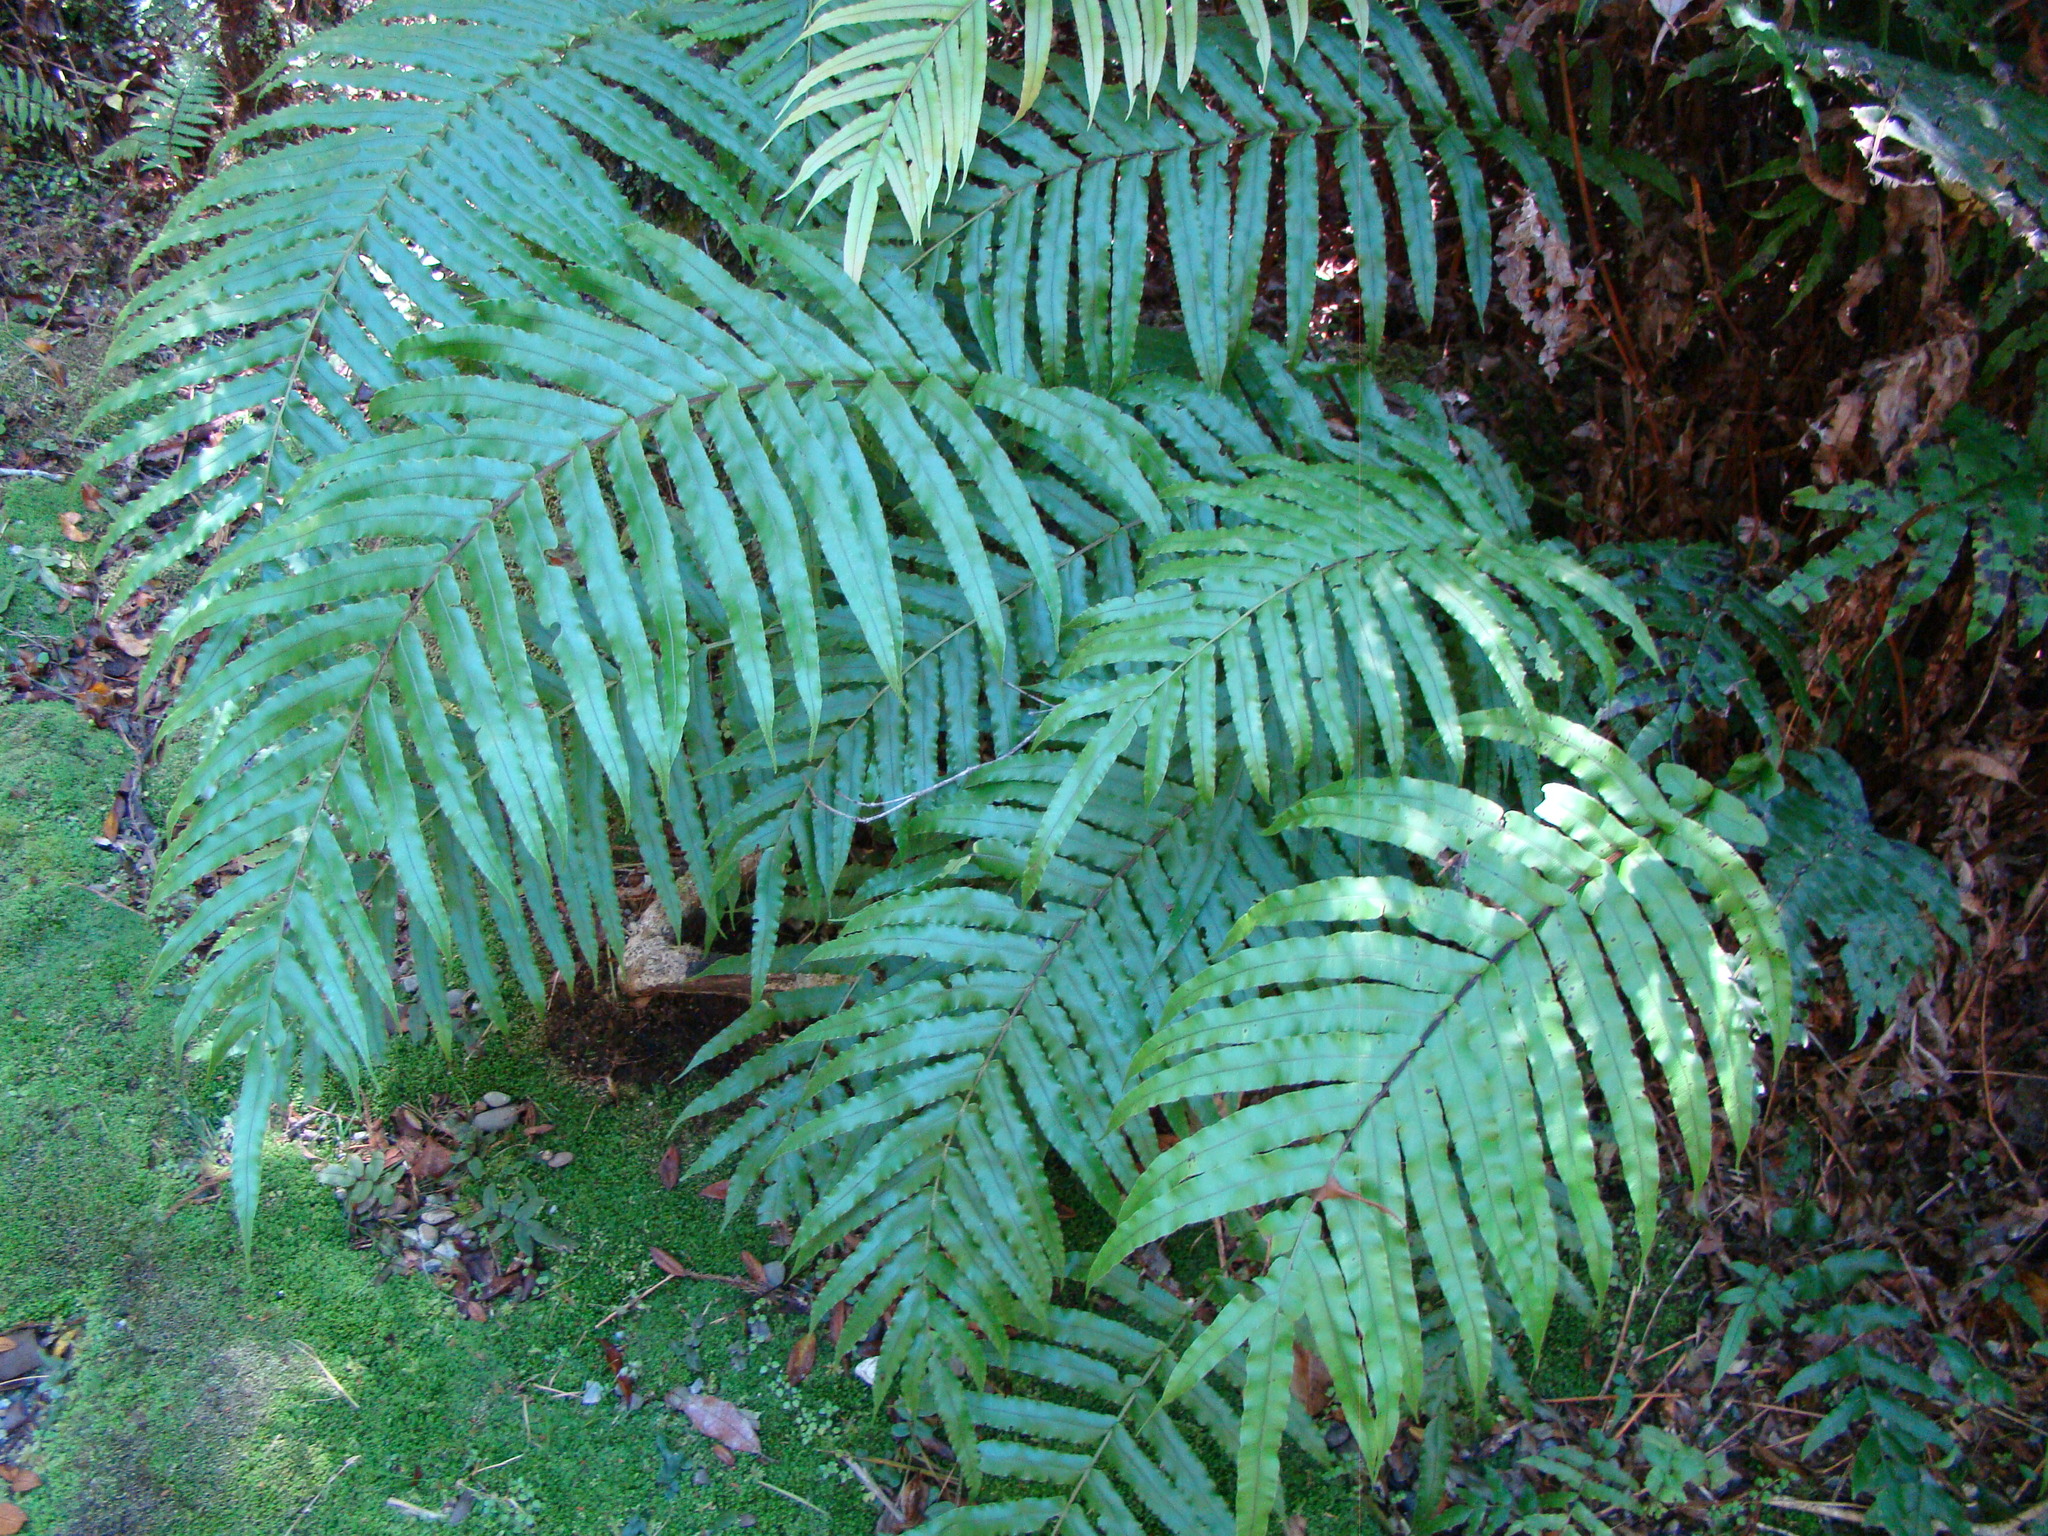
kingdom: Plantae
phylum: Tracheophyta
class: Polypodiopsida
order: Polypodiales
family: Blechnaceae
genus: Parablechnum
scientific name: Parablechnum novae-zelandiae
